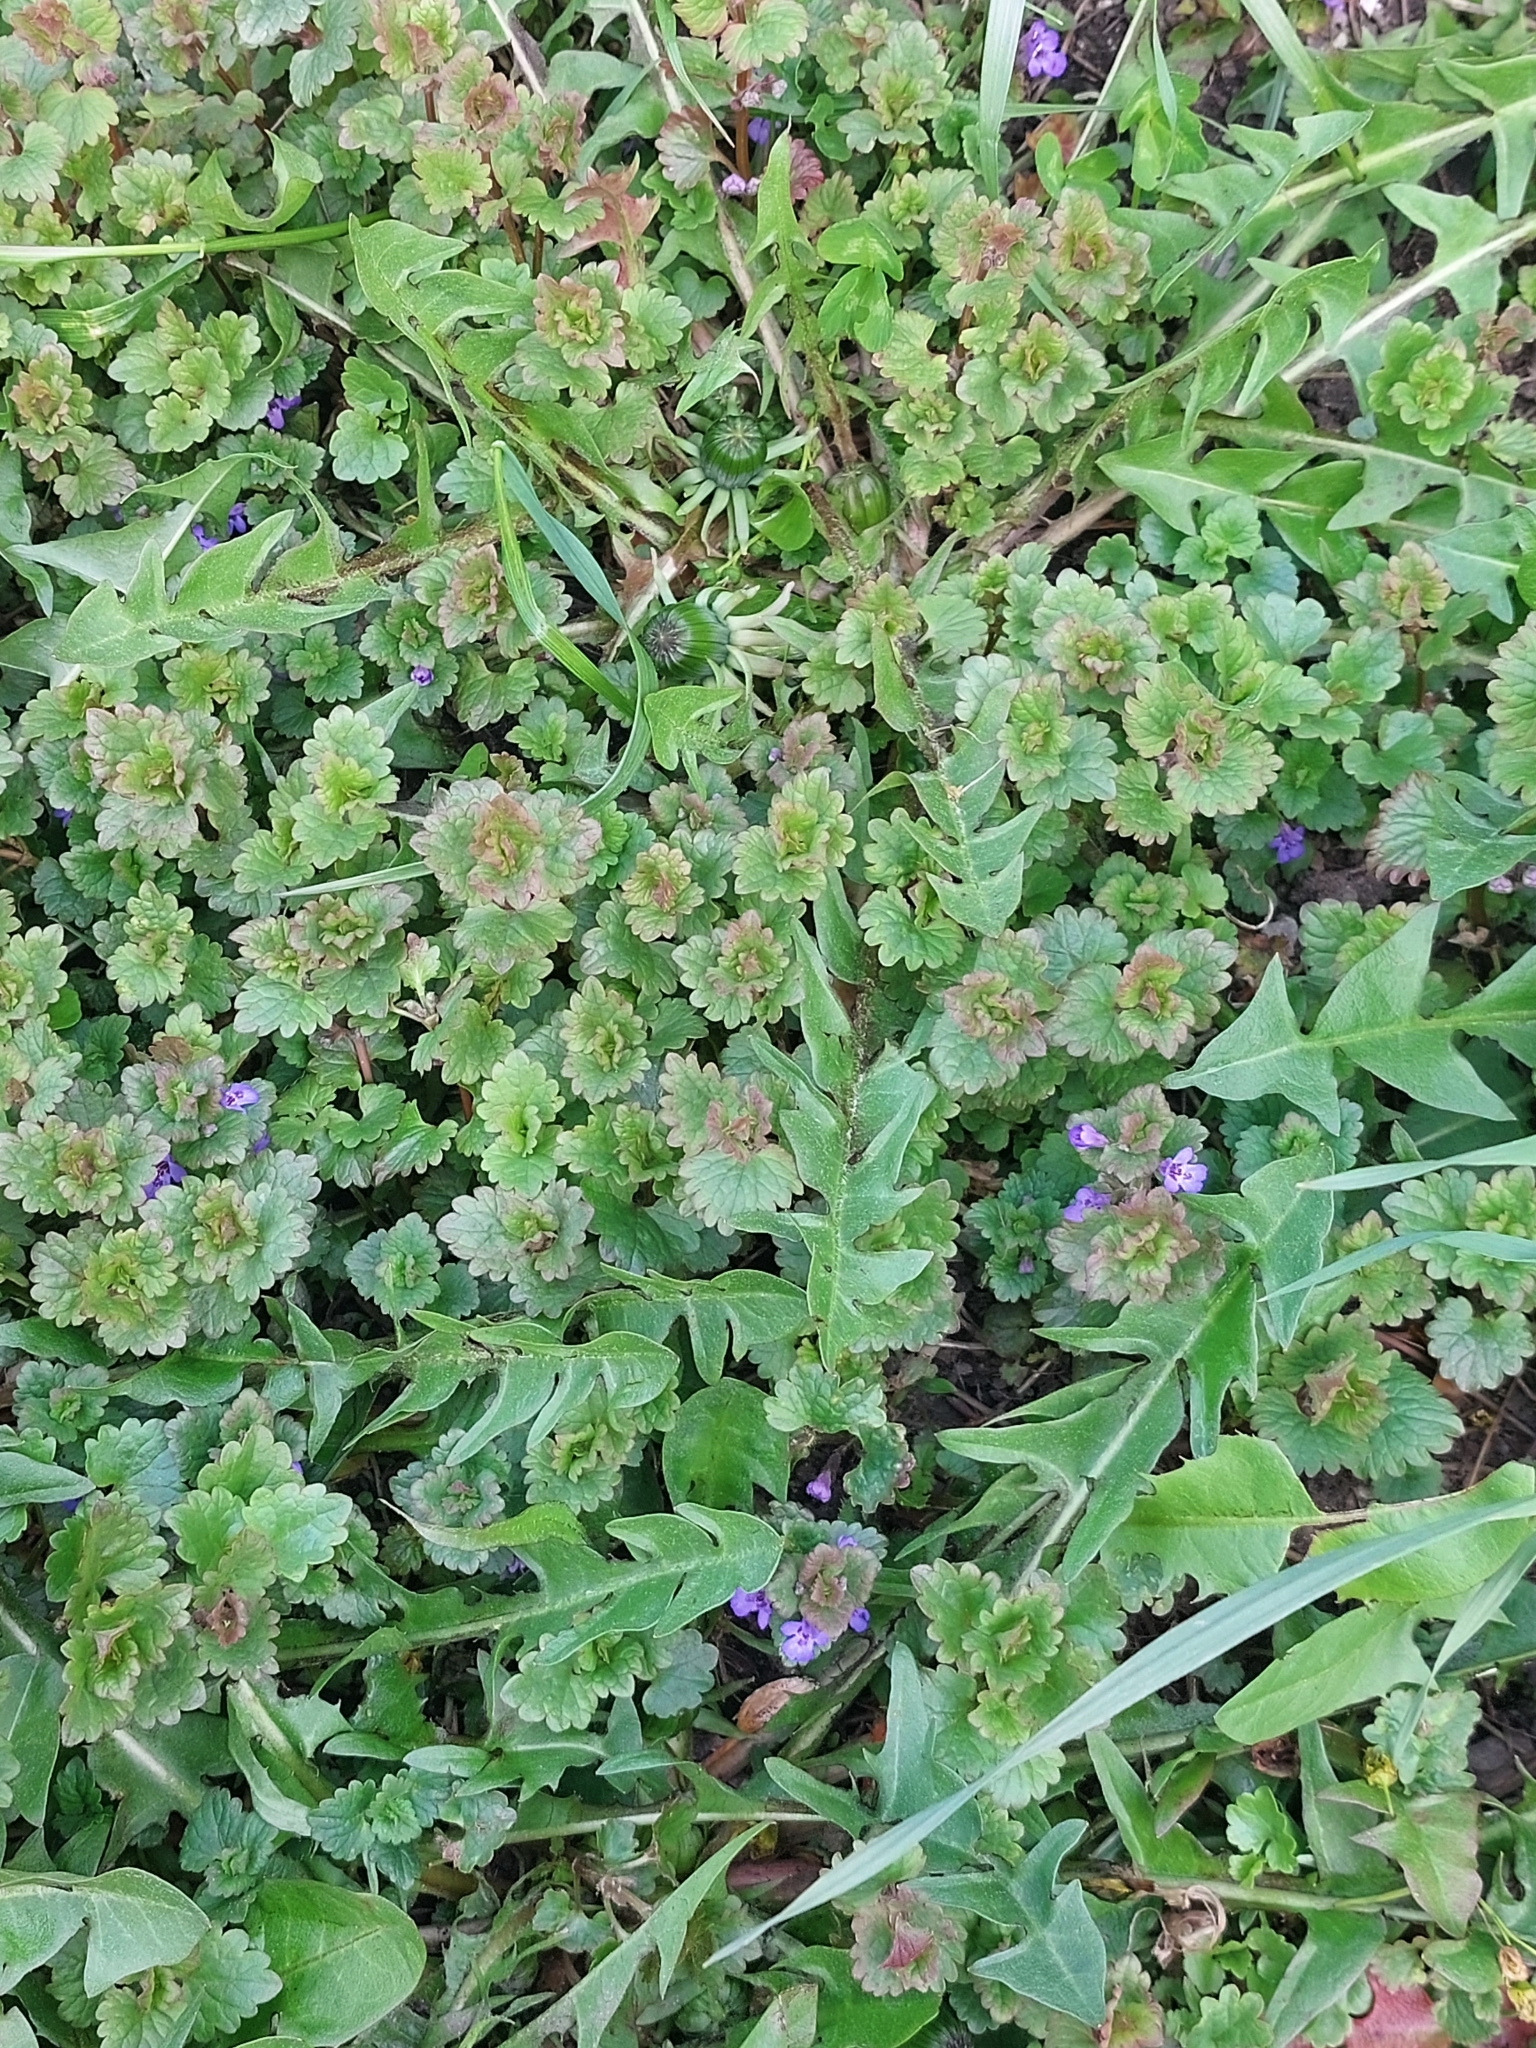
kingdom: Plantae
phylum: Tracheophyta
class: Magnoliopsida
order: Lamiales
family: Lamiaceae
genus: Glechoma
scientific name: Glechoma hederacea
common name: Ground ivy
